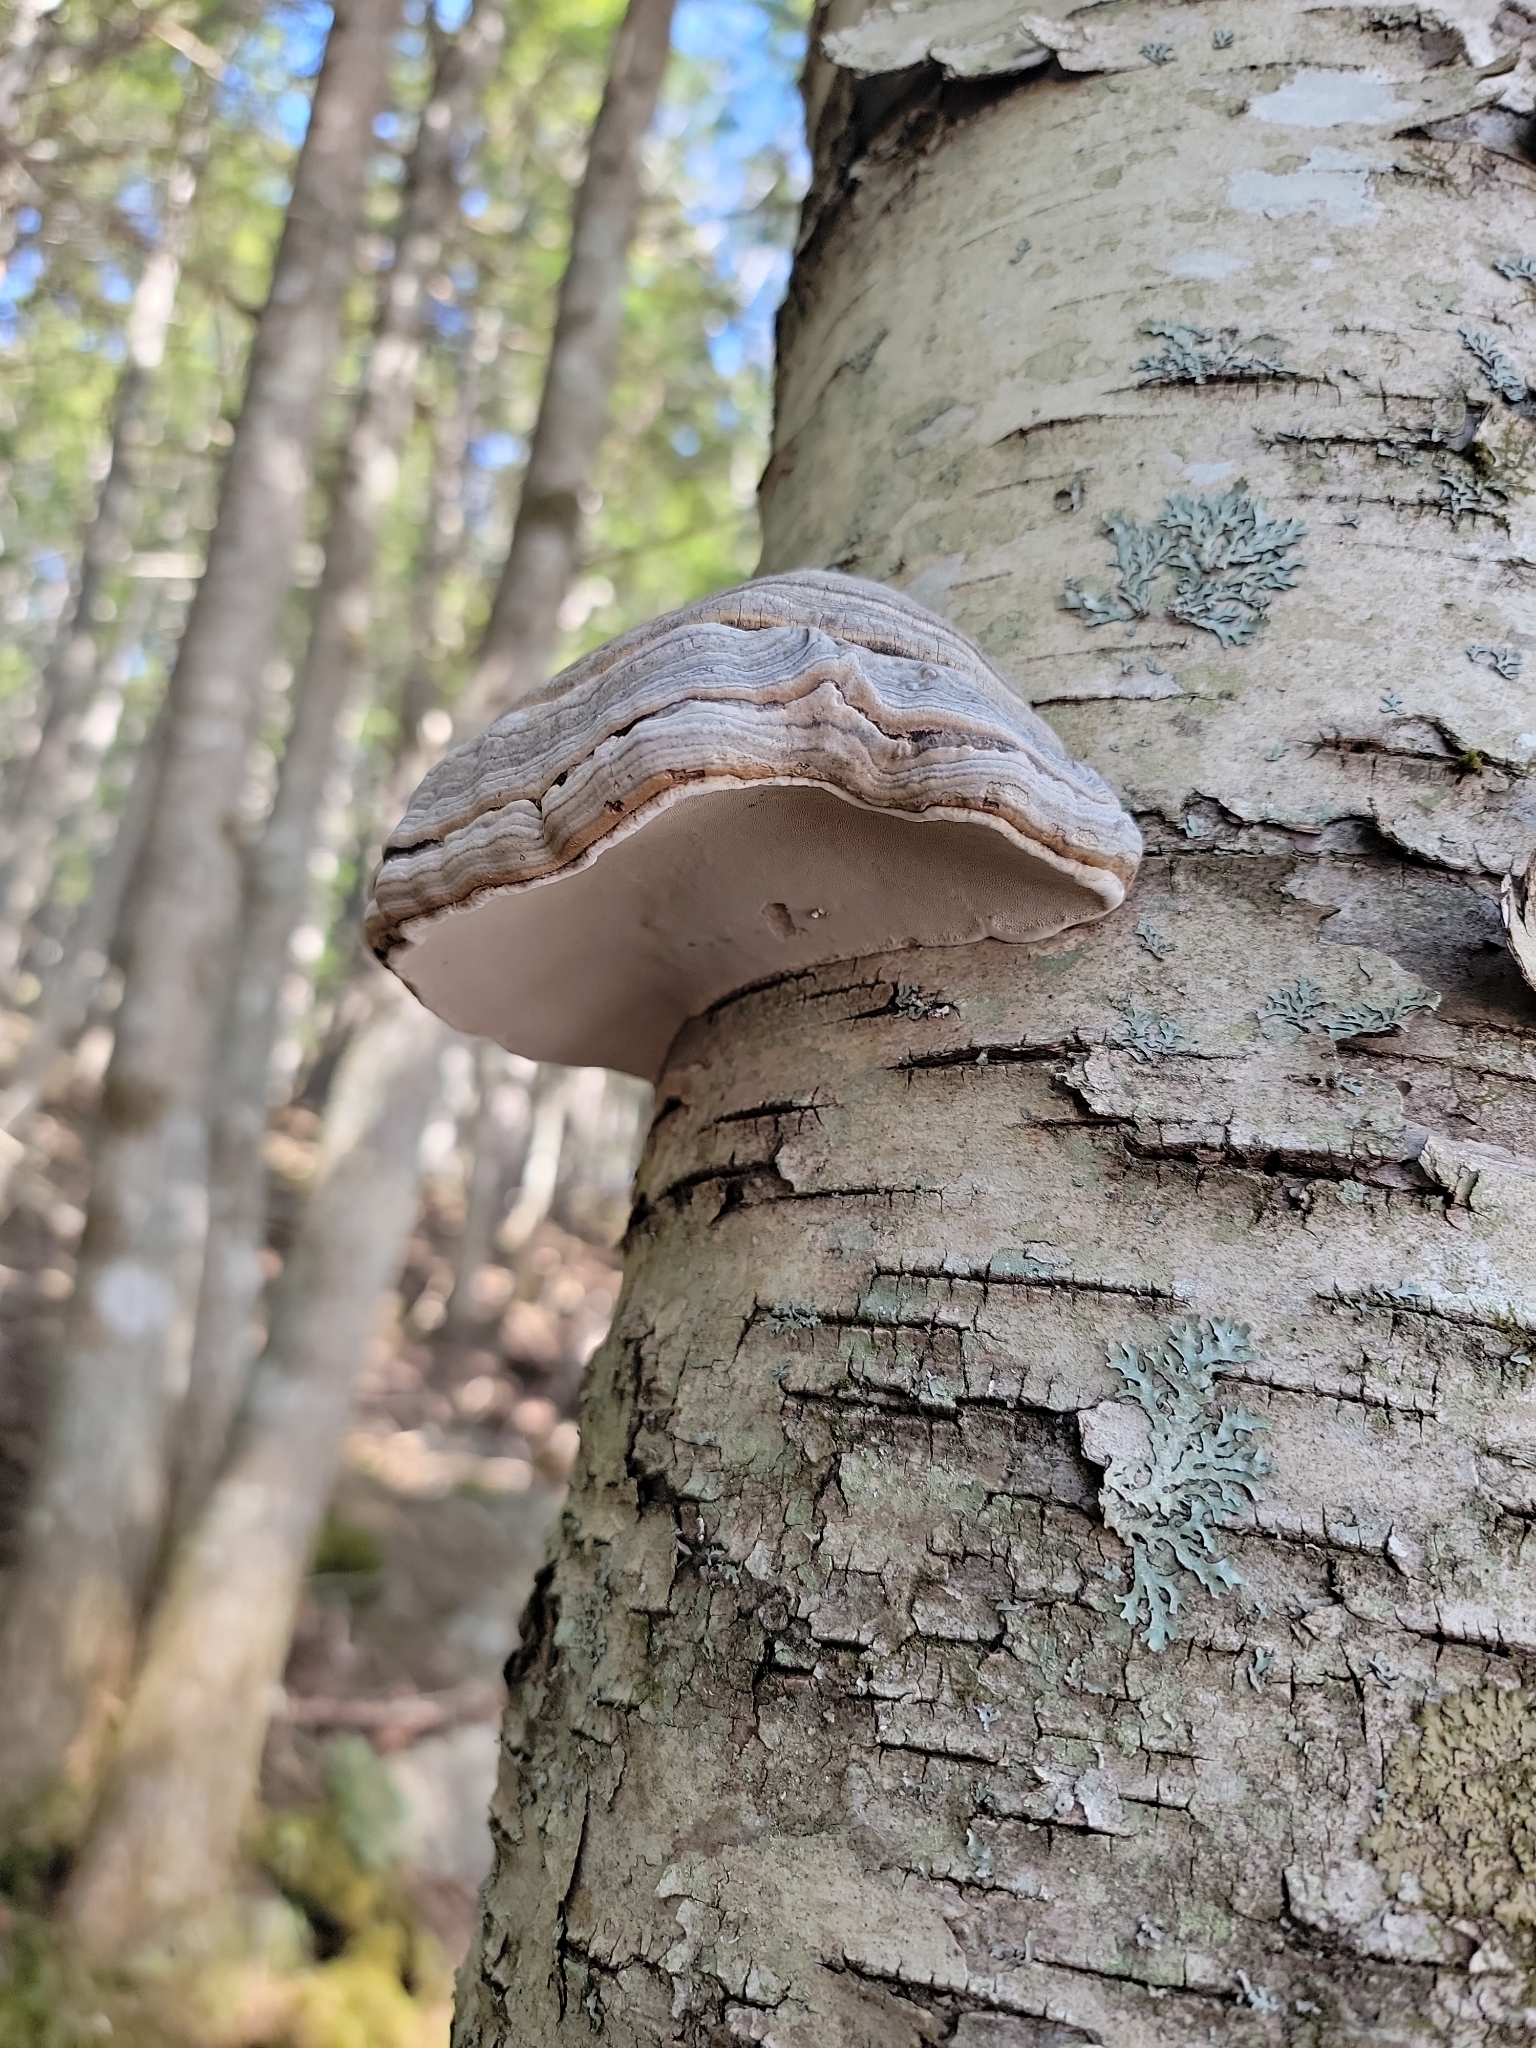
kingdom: Fungi
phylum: Basidiomycota
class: Agaricomycetes
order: Polyporales
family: Polyporaceae
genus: Fomes
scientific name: Fomes fomentarius
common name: Hoof fungus
